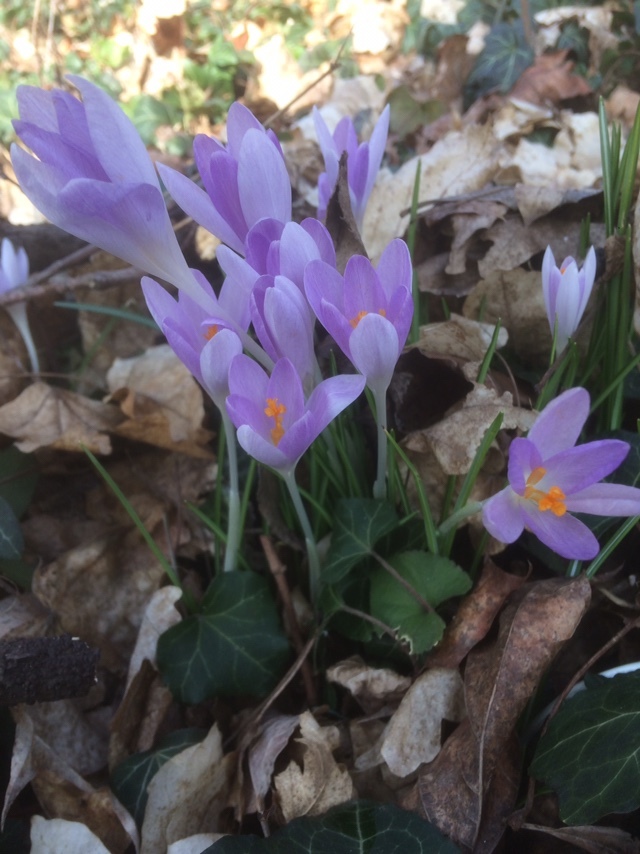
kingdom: Plantae
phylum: Tracheophyta
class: Liliopsida
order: Asparagales
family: Iridaceae
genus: Crocus
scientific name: Crocus tommasinianus
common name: Early crocus
